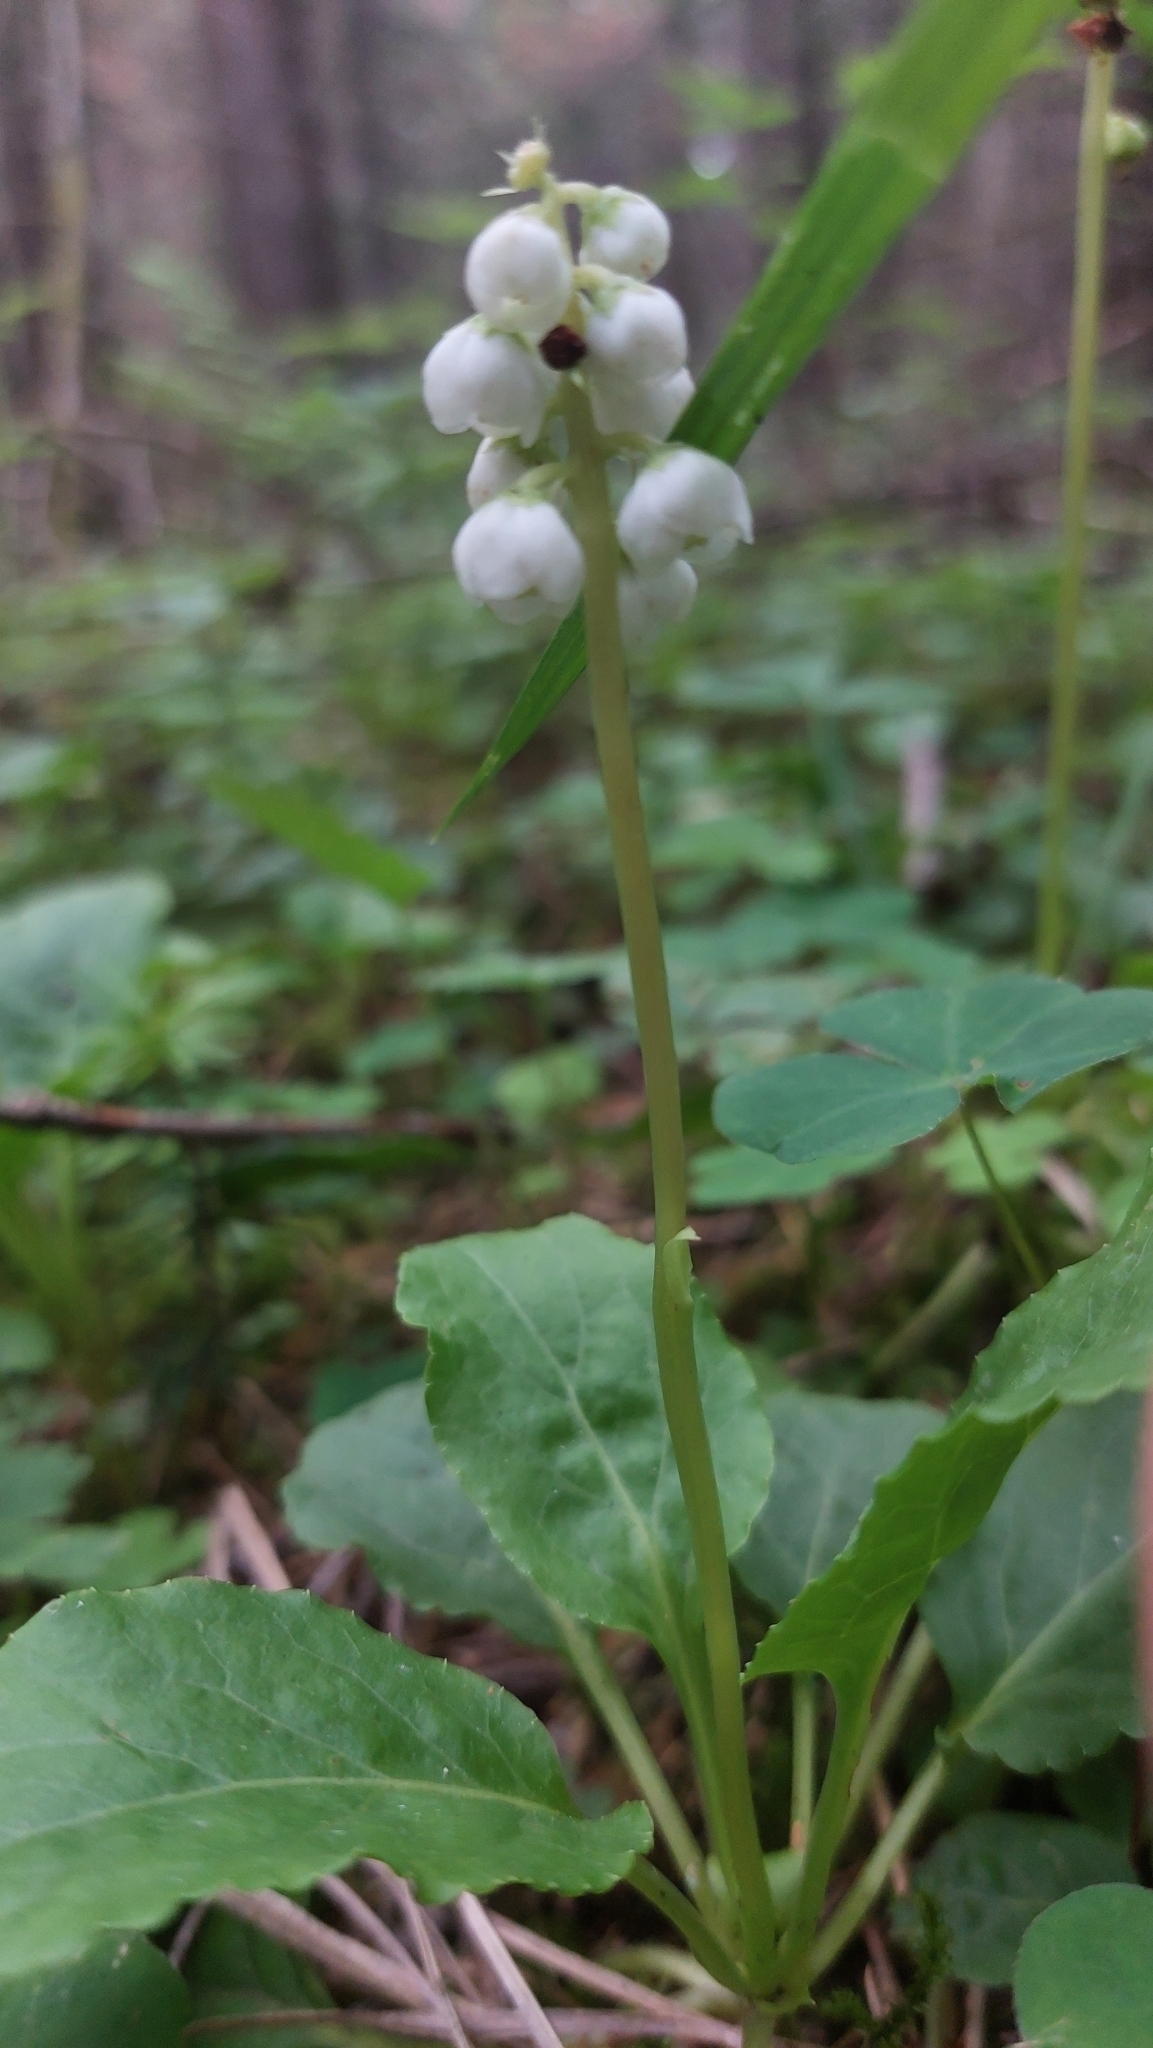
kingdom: Plantae
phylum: Tracheophyta
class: Magnoliopsida
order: Ericales
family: Ericaceae
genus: Pyrola
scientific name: Pyrola minor
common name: Common wintergreen
